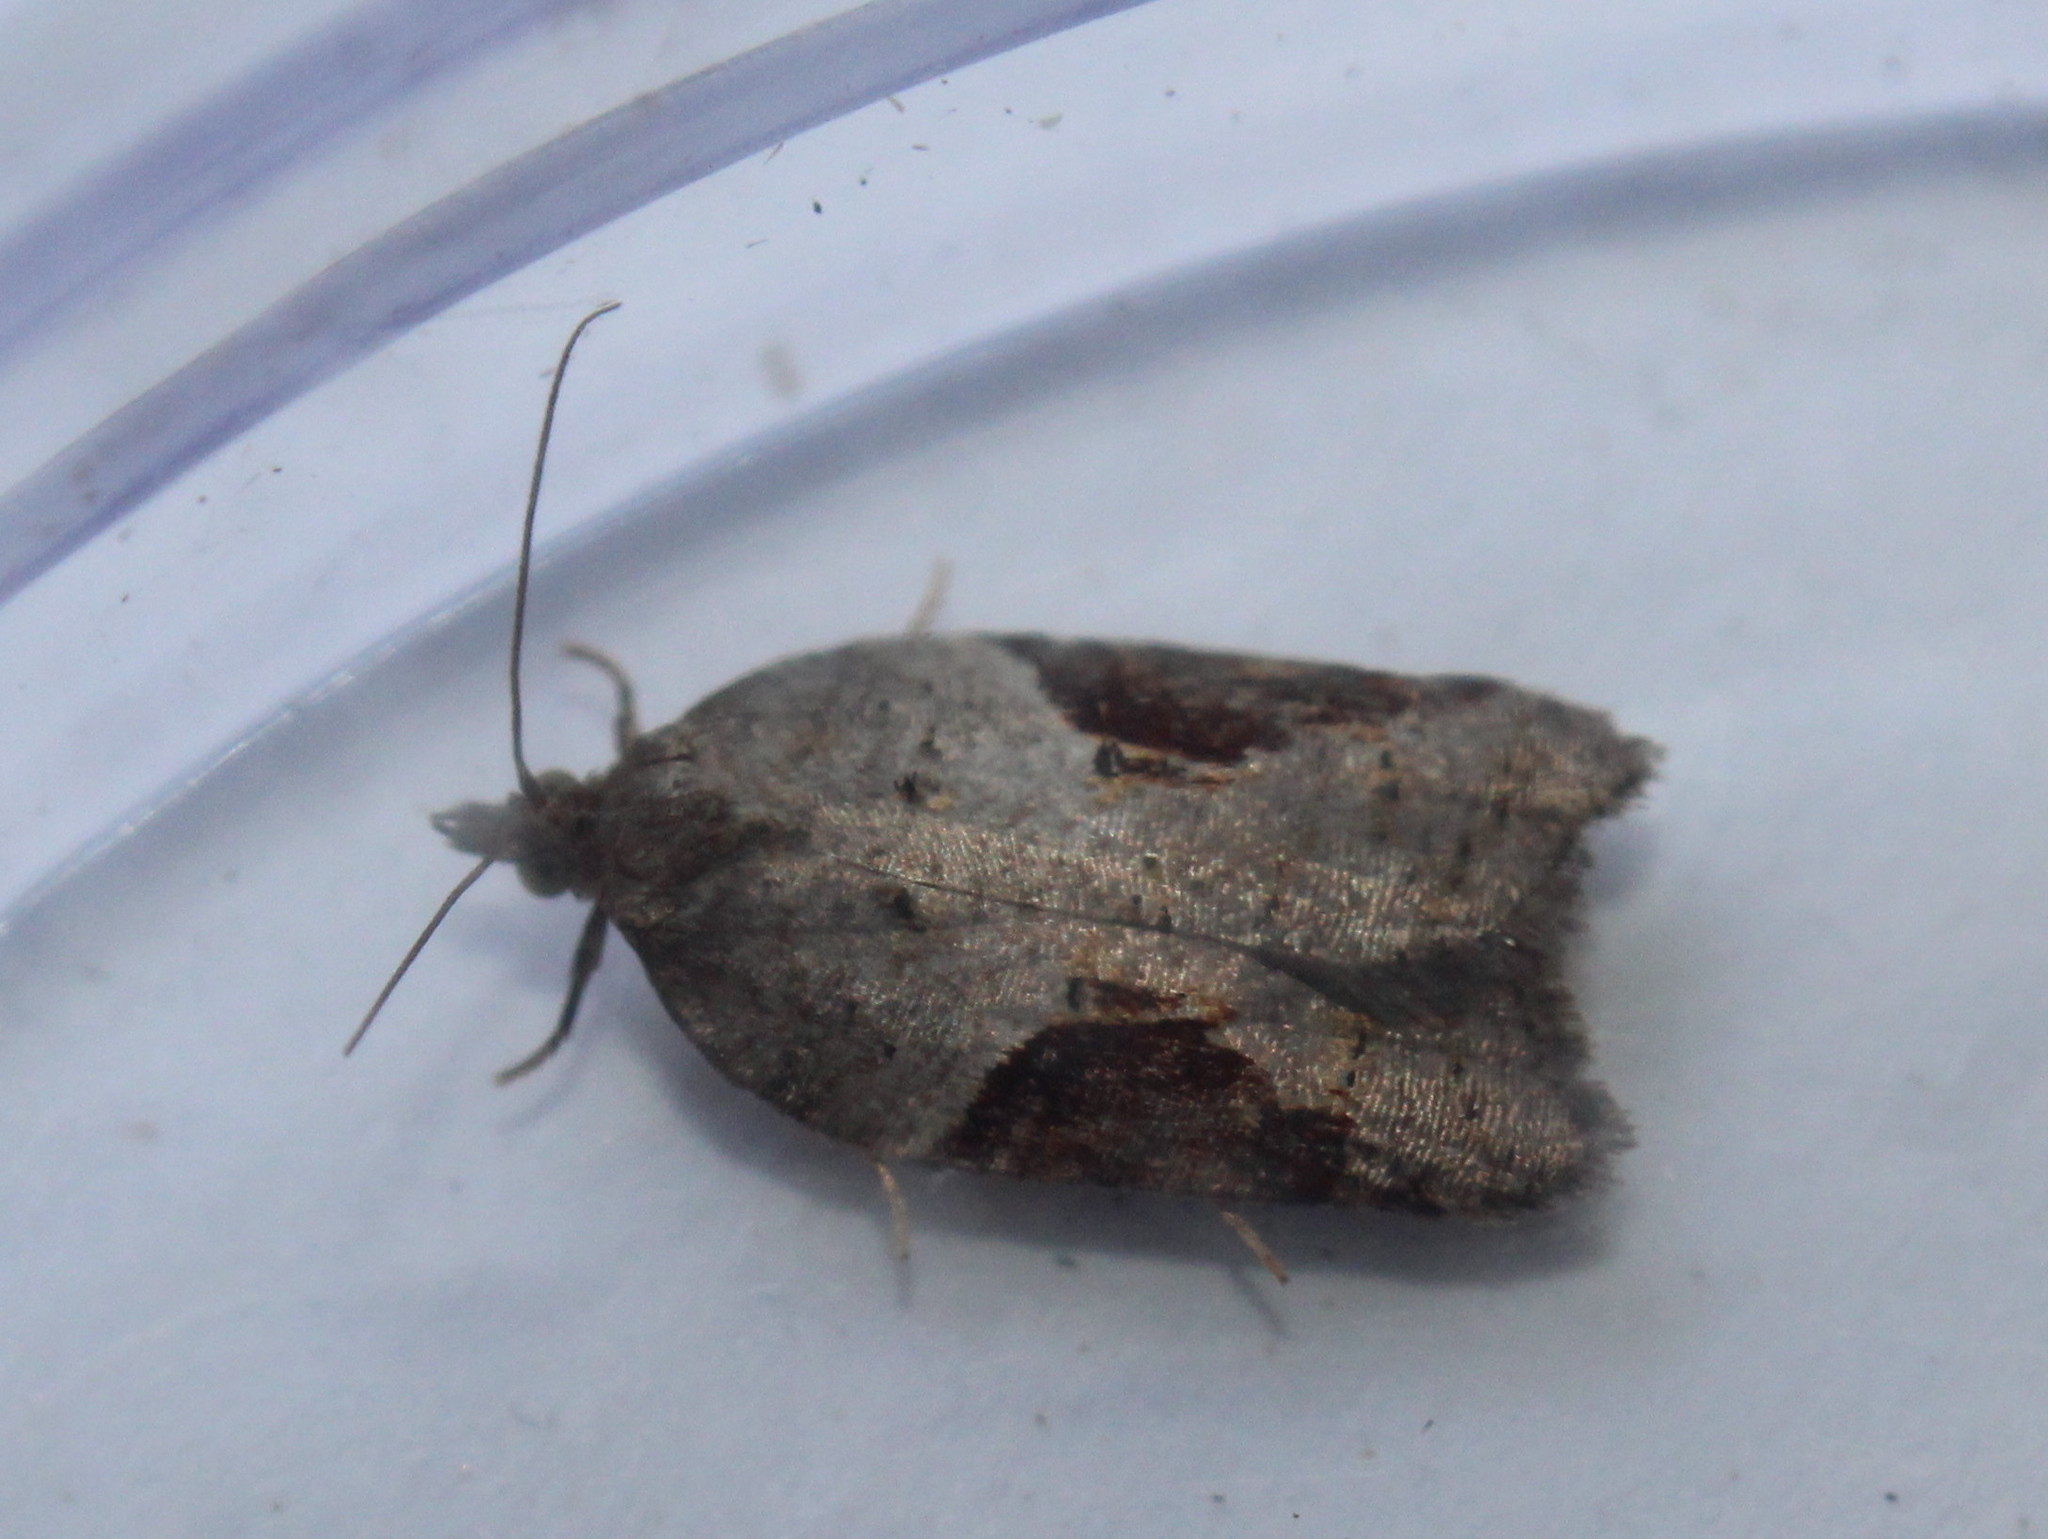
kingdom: Animalia
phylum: Arthropoda
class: Insecta
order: Lepidoptera
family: Tortricidae
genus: Acleris
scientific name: Acleris macdunnoughi
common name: Macdunnough's acleris
